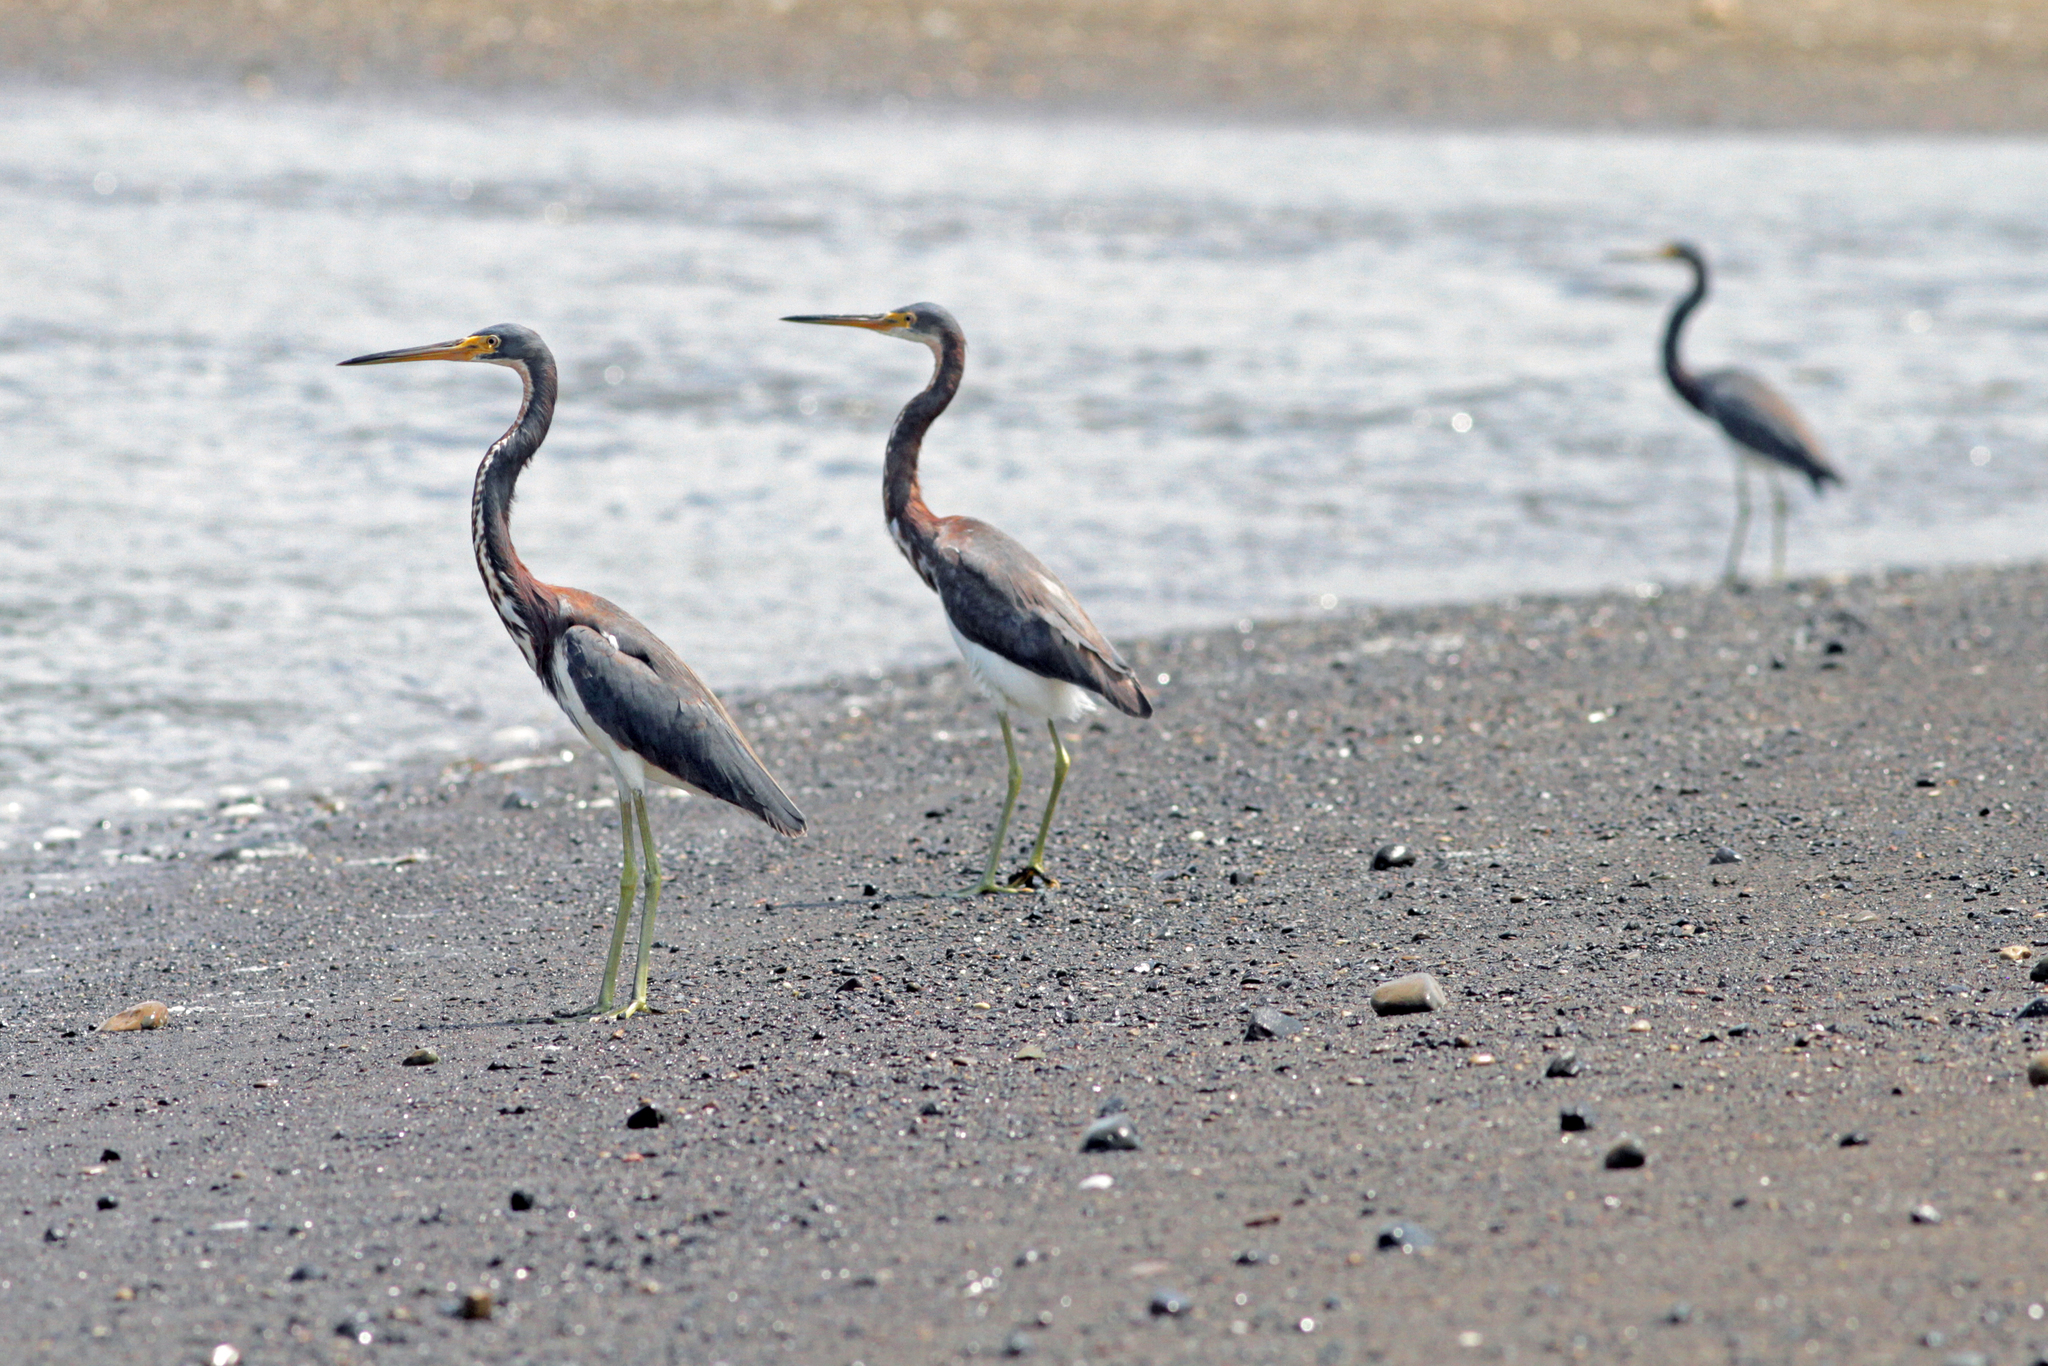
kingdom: Animalia
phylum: Chordata
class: Aves
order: Pelecaniformes
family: Ardeidae
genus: Egretta
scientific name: Egretta tricolor
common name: Tricolored heron
